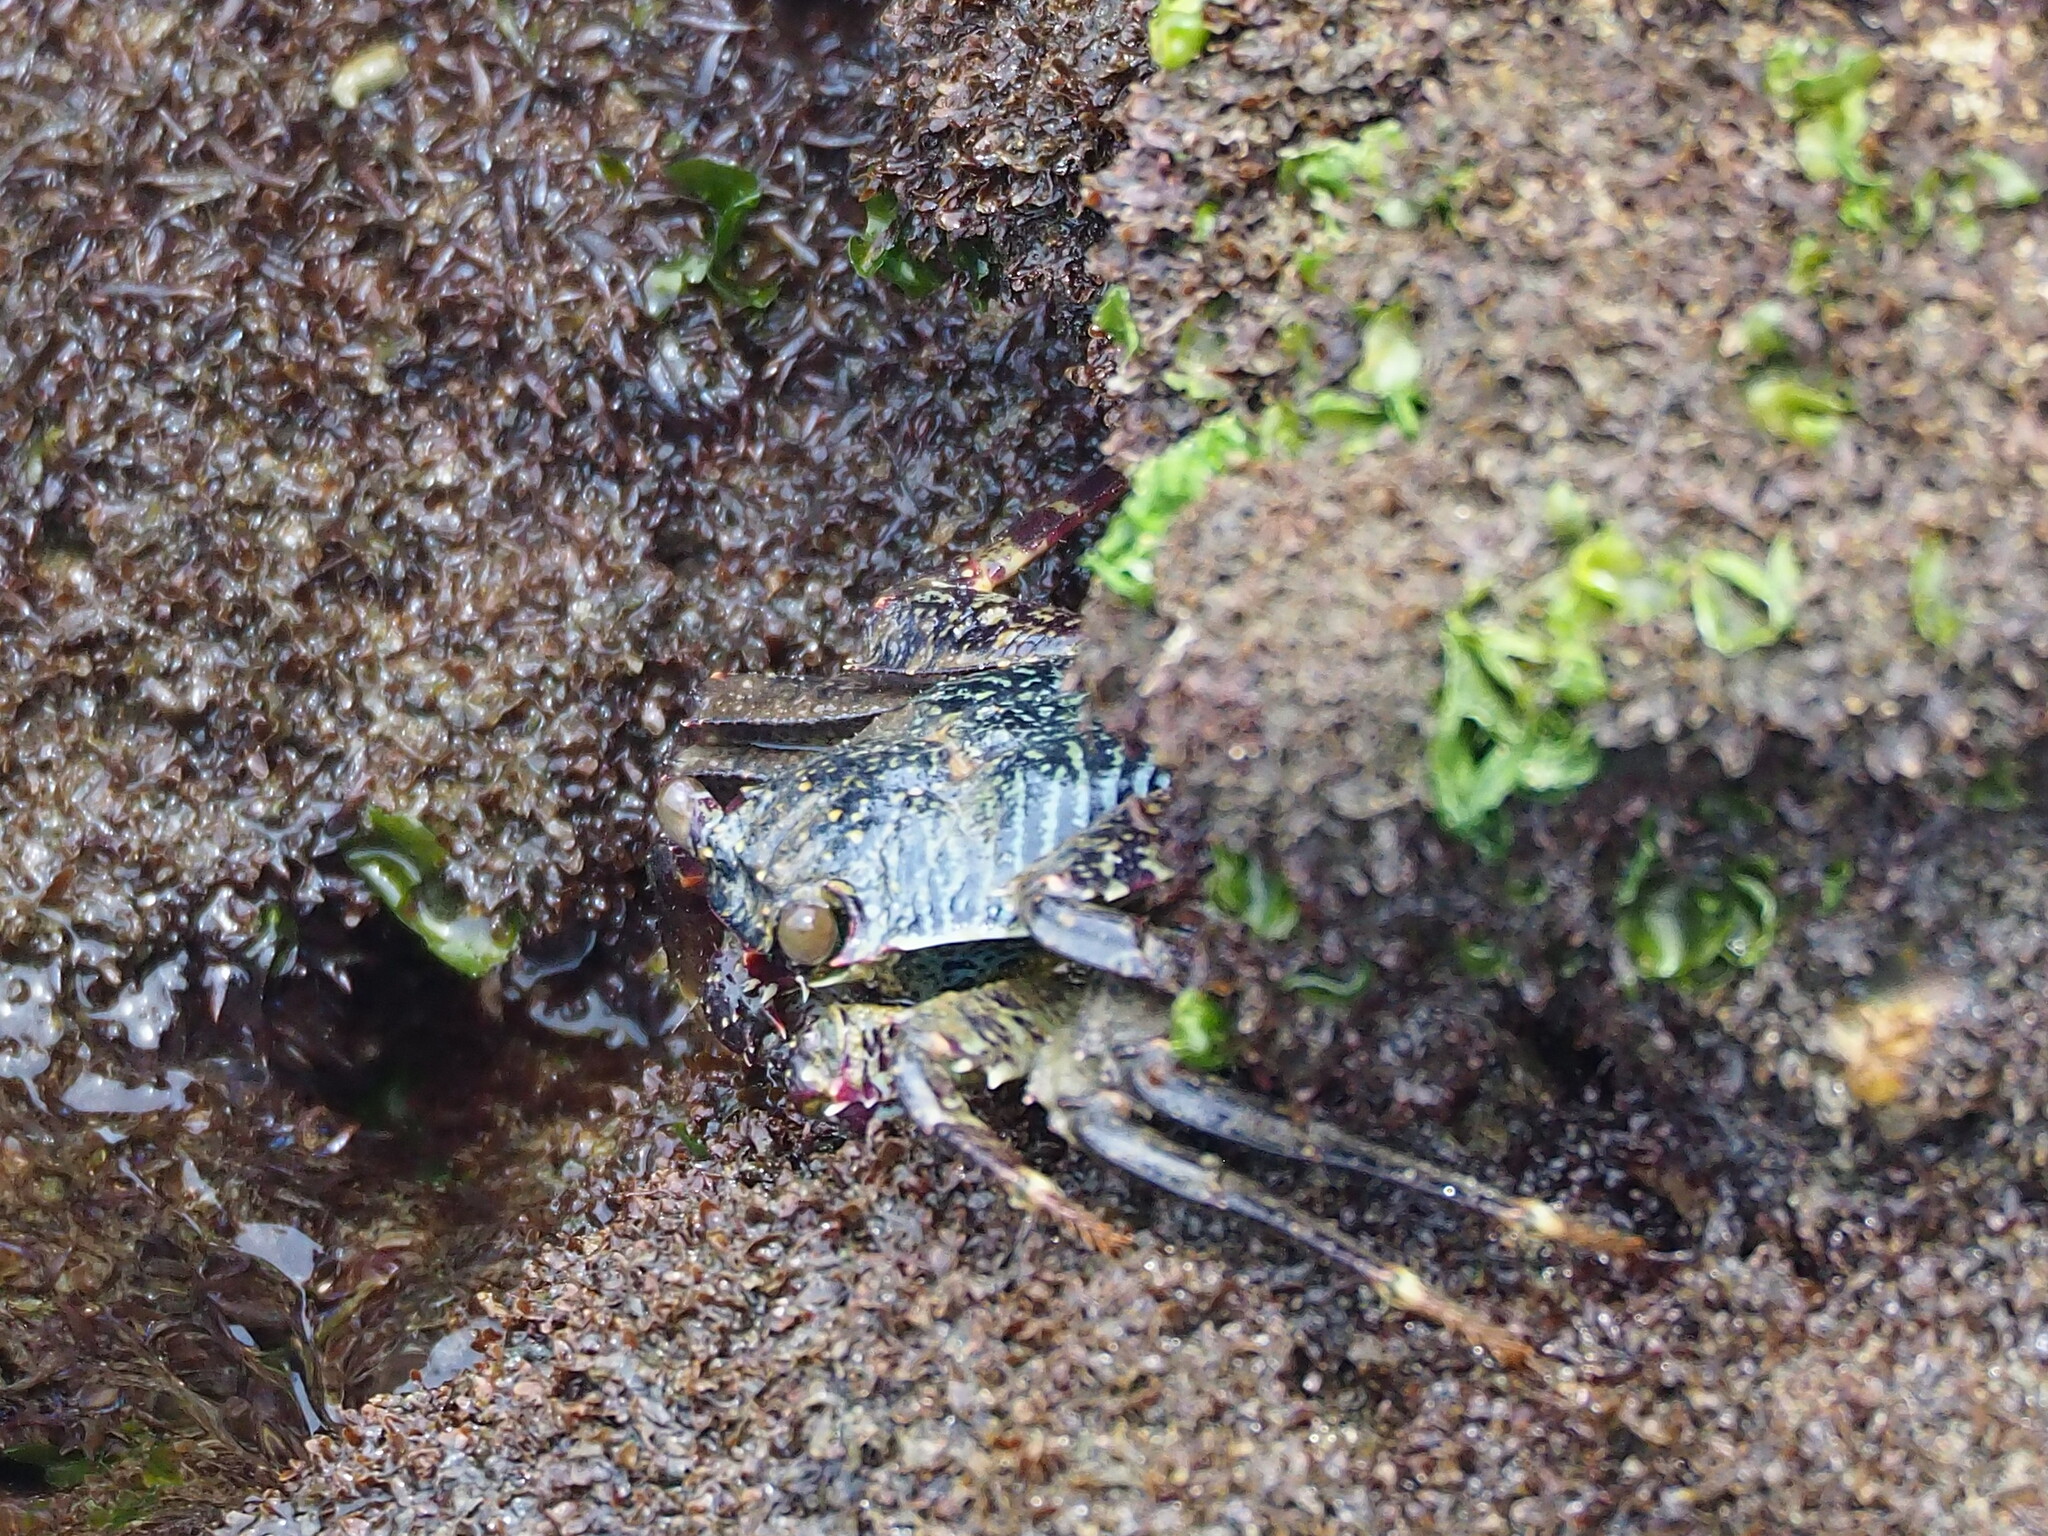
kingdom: Animalia
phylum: Arthropoda
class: Malacostraca
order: Decapoda
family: Grapsidae
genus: Grapsus
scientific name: Grapsus albolineatus
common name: Mottled lightfoot crab
